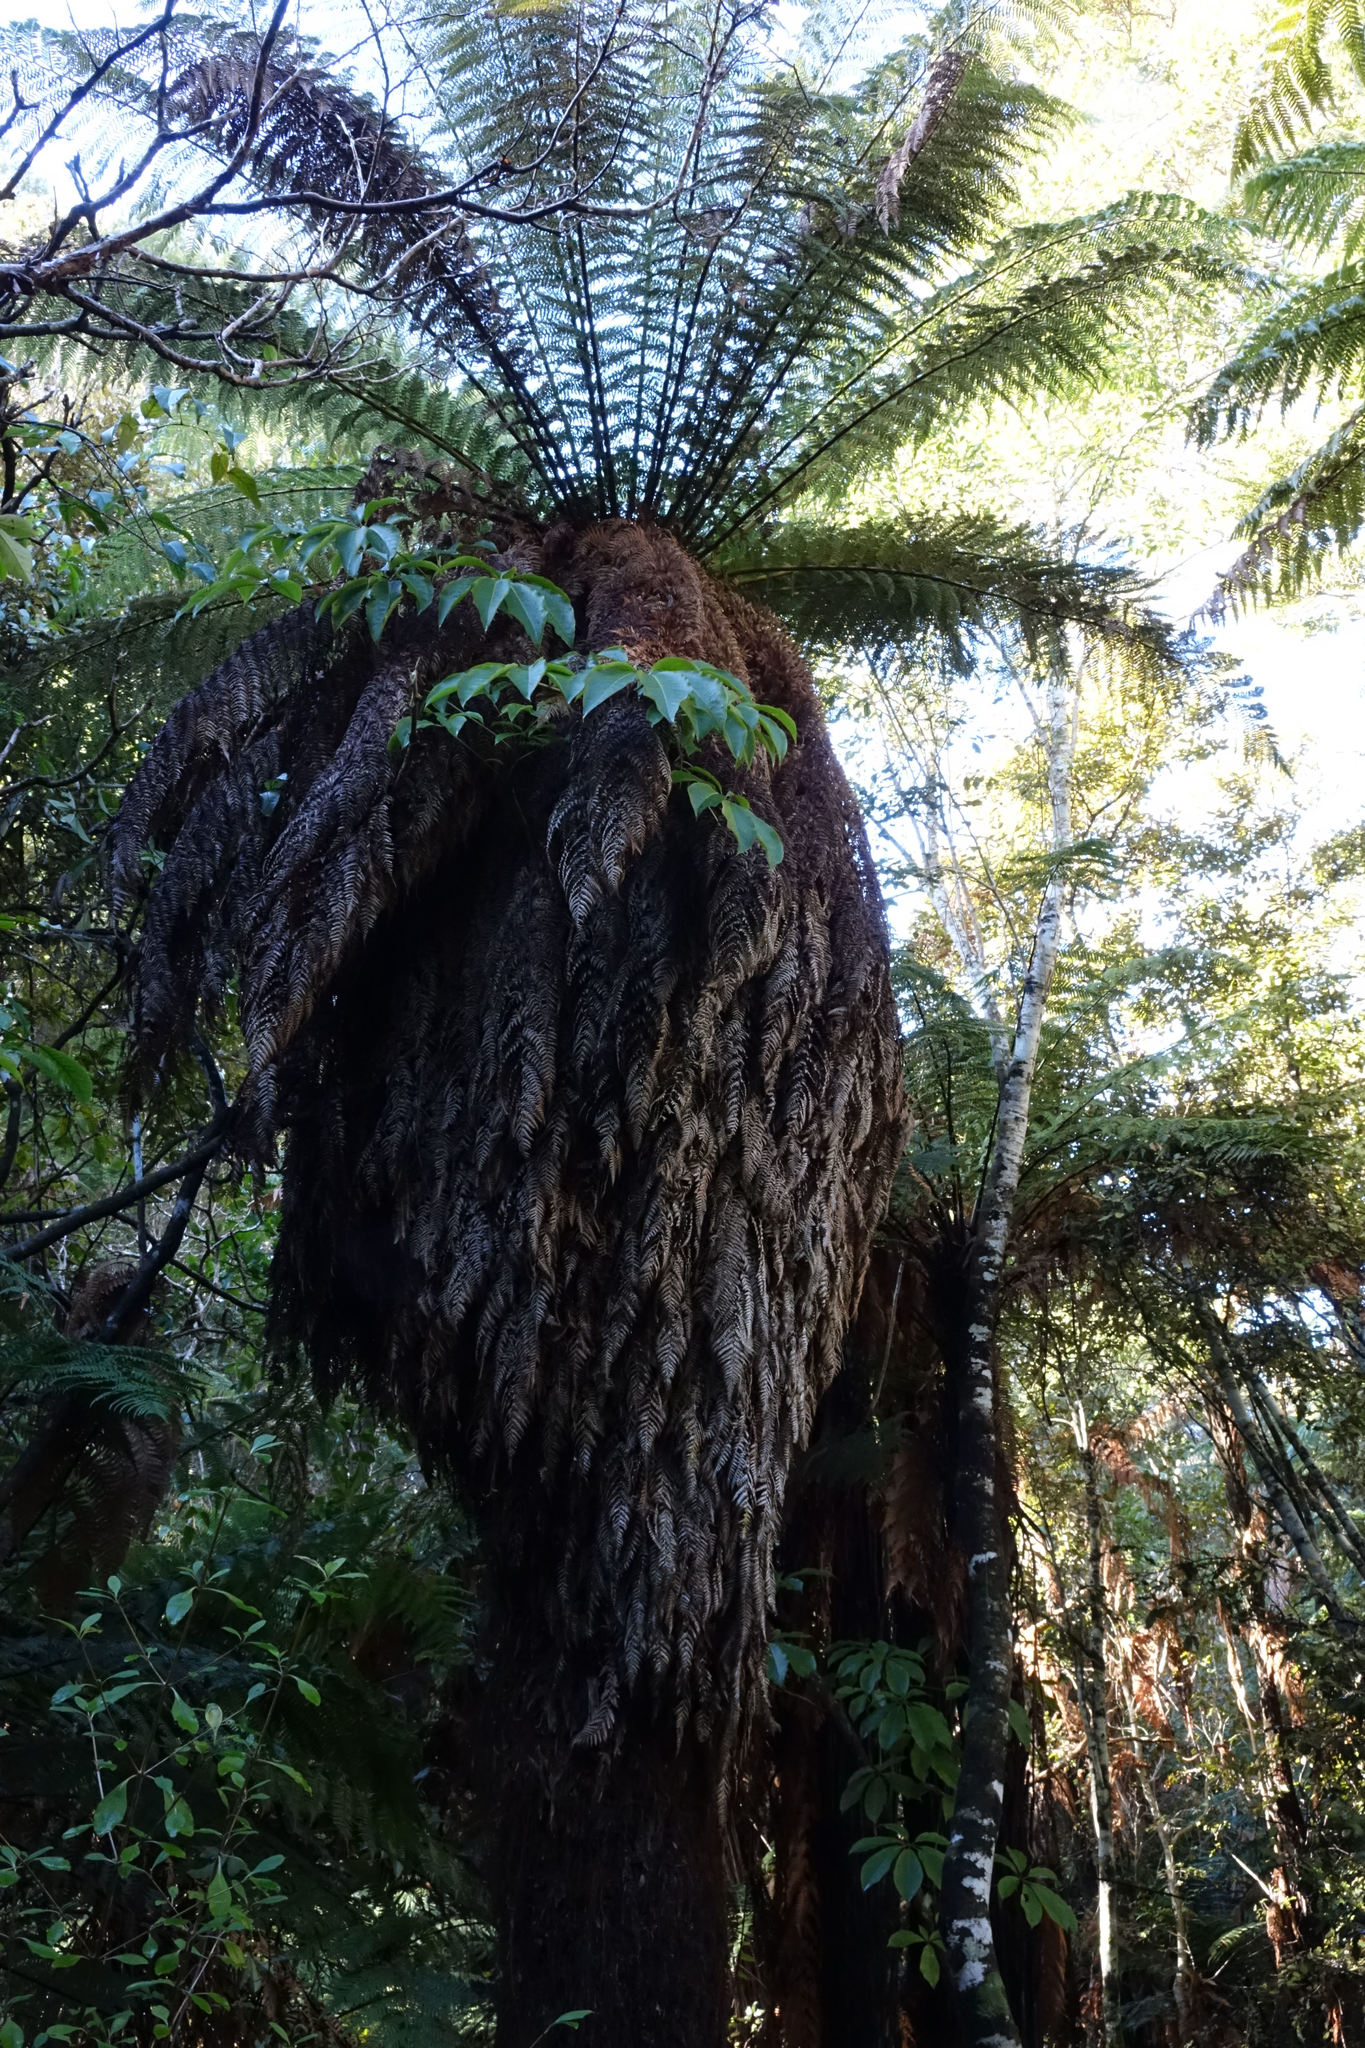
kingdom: Plantae
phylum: Tracheophyta
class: Polypodiopsida
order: Cyatheales
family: Dicksoniaceae
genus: Dicksonia
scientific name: Dicksonia fibrosa
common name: Golden tree fern
